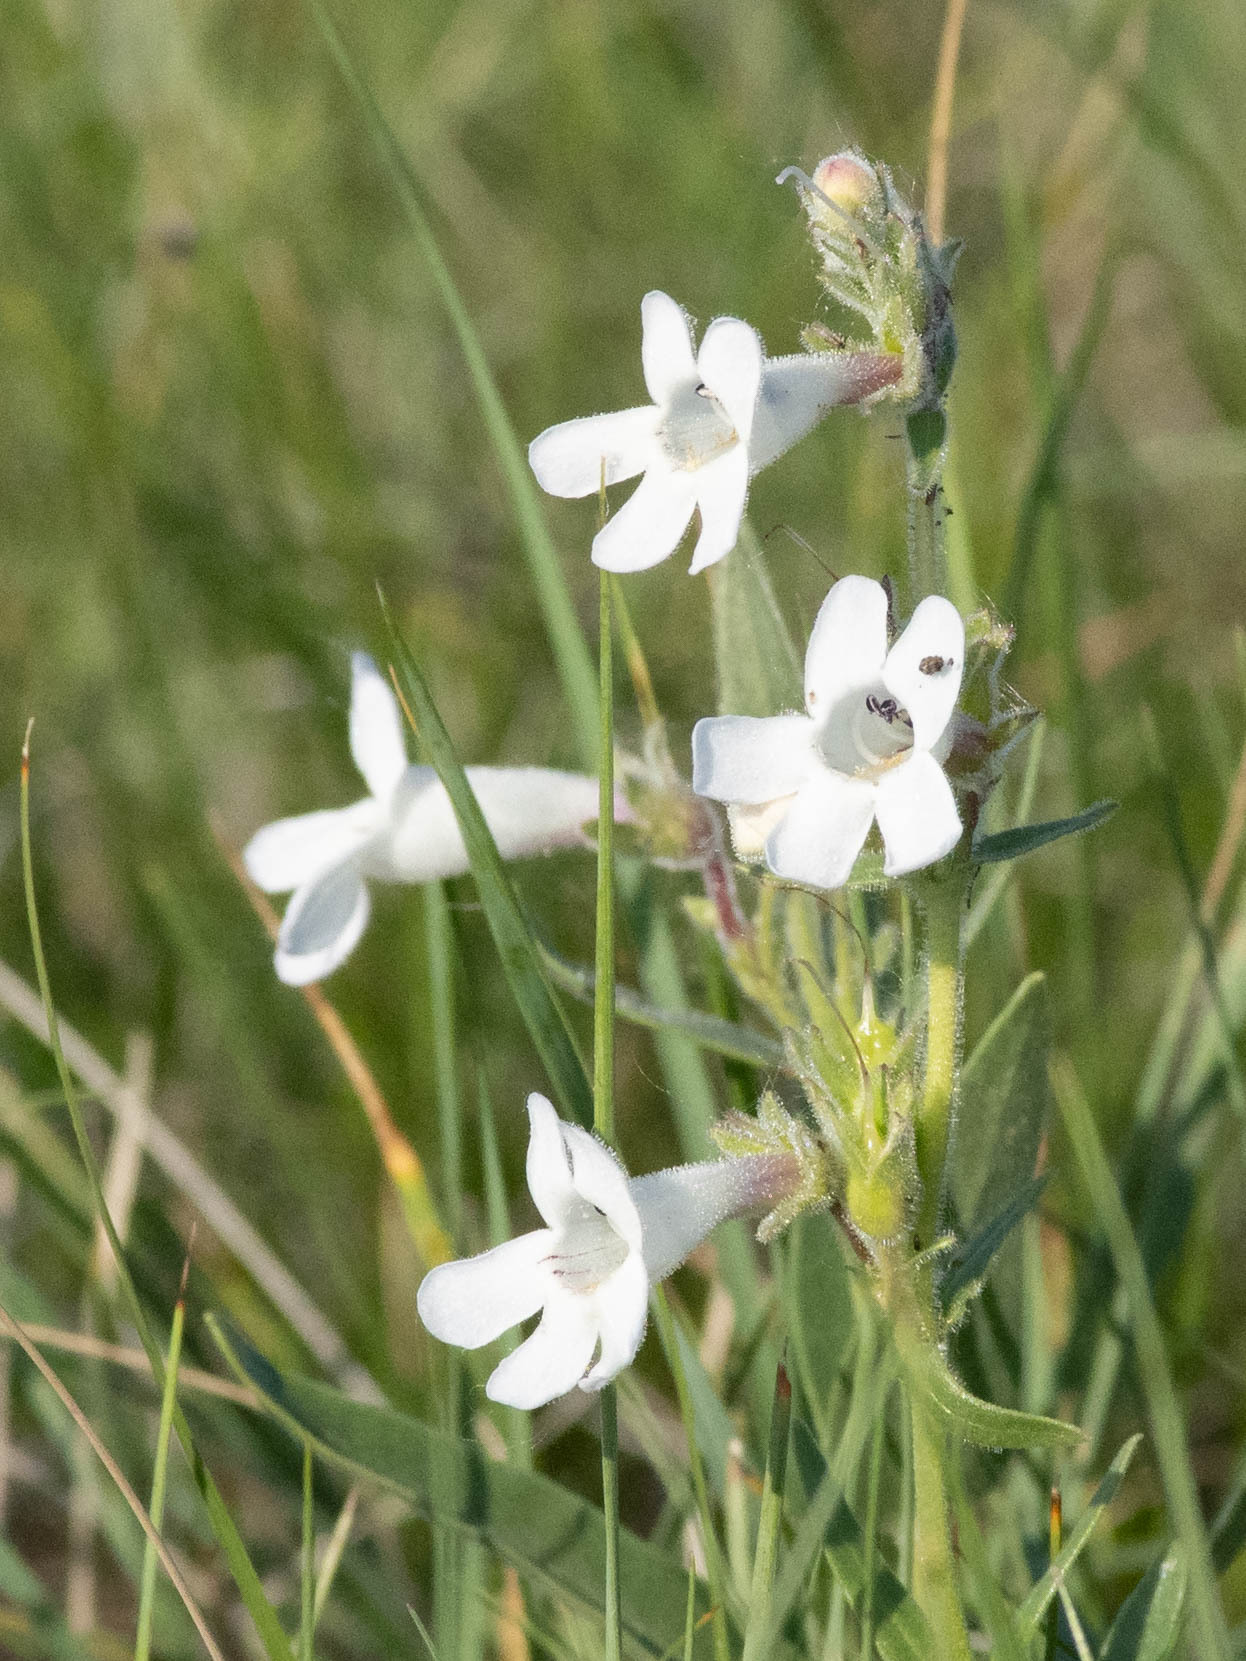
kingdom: Plantae
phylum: Tracheophyta
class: Magnoliopsida
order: Lamiales
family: Plantaginaceae
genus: Penstemon
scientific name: Penstemon albidus
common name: White beardtongue
